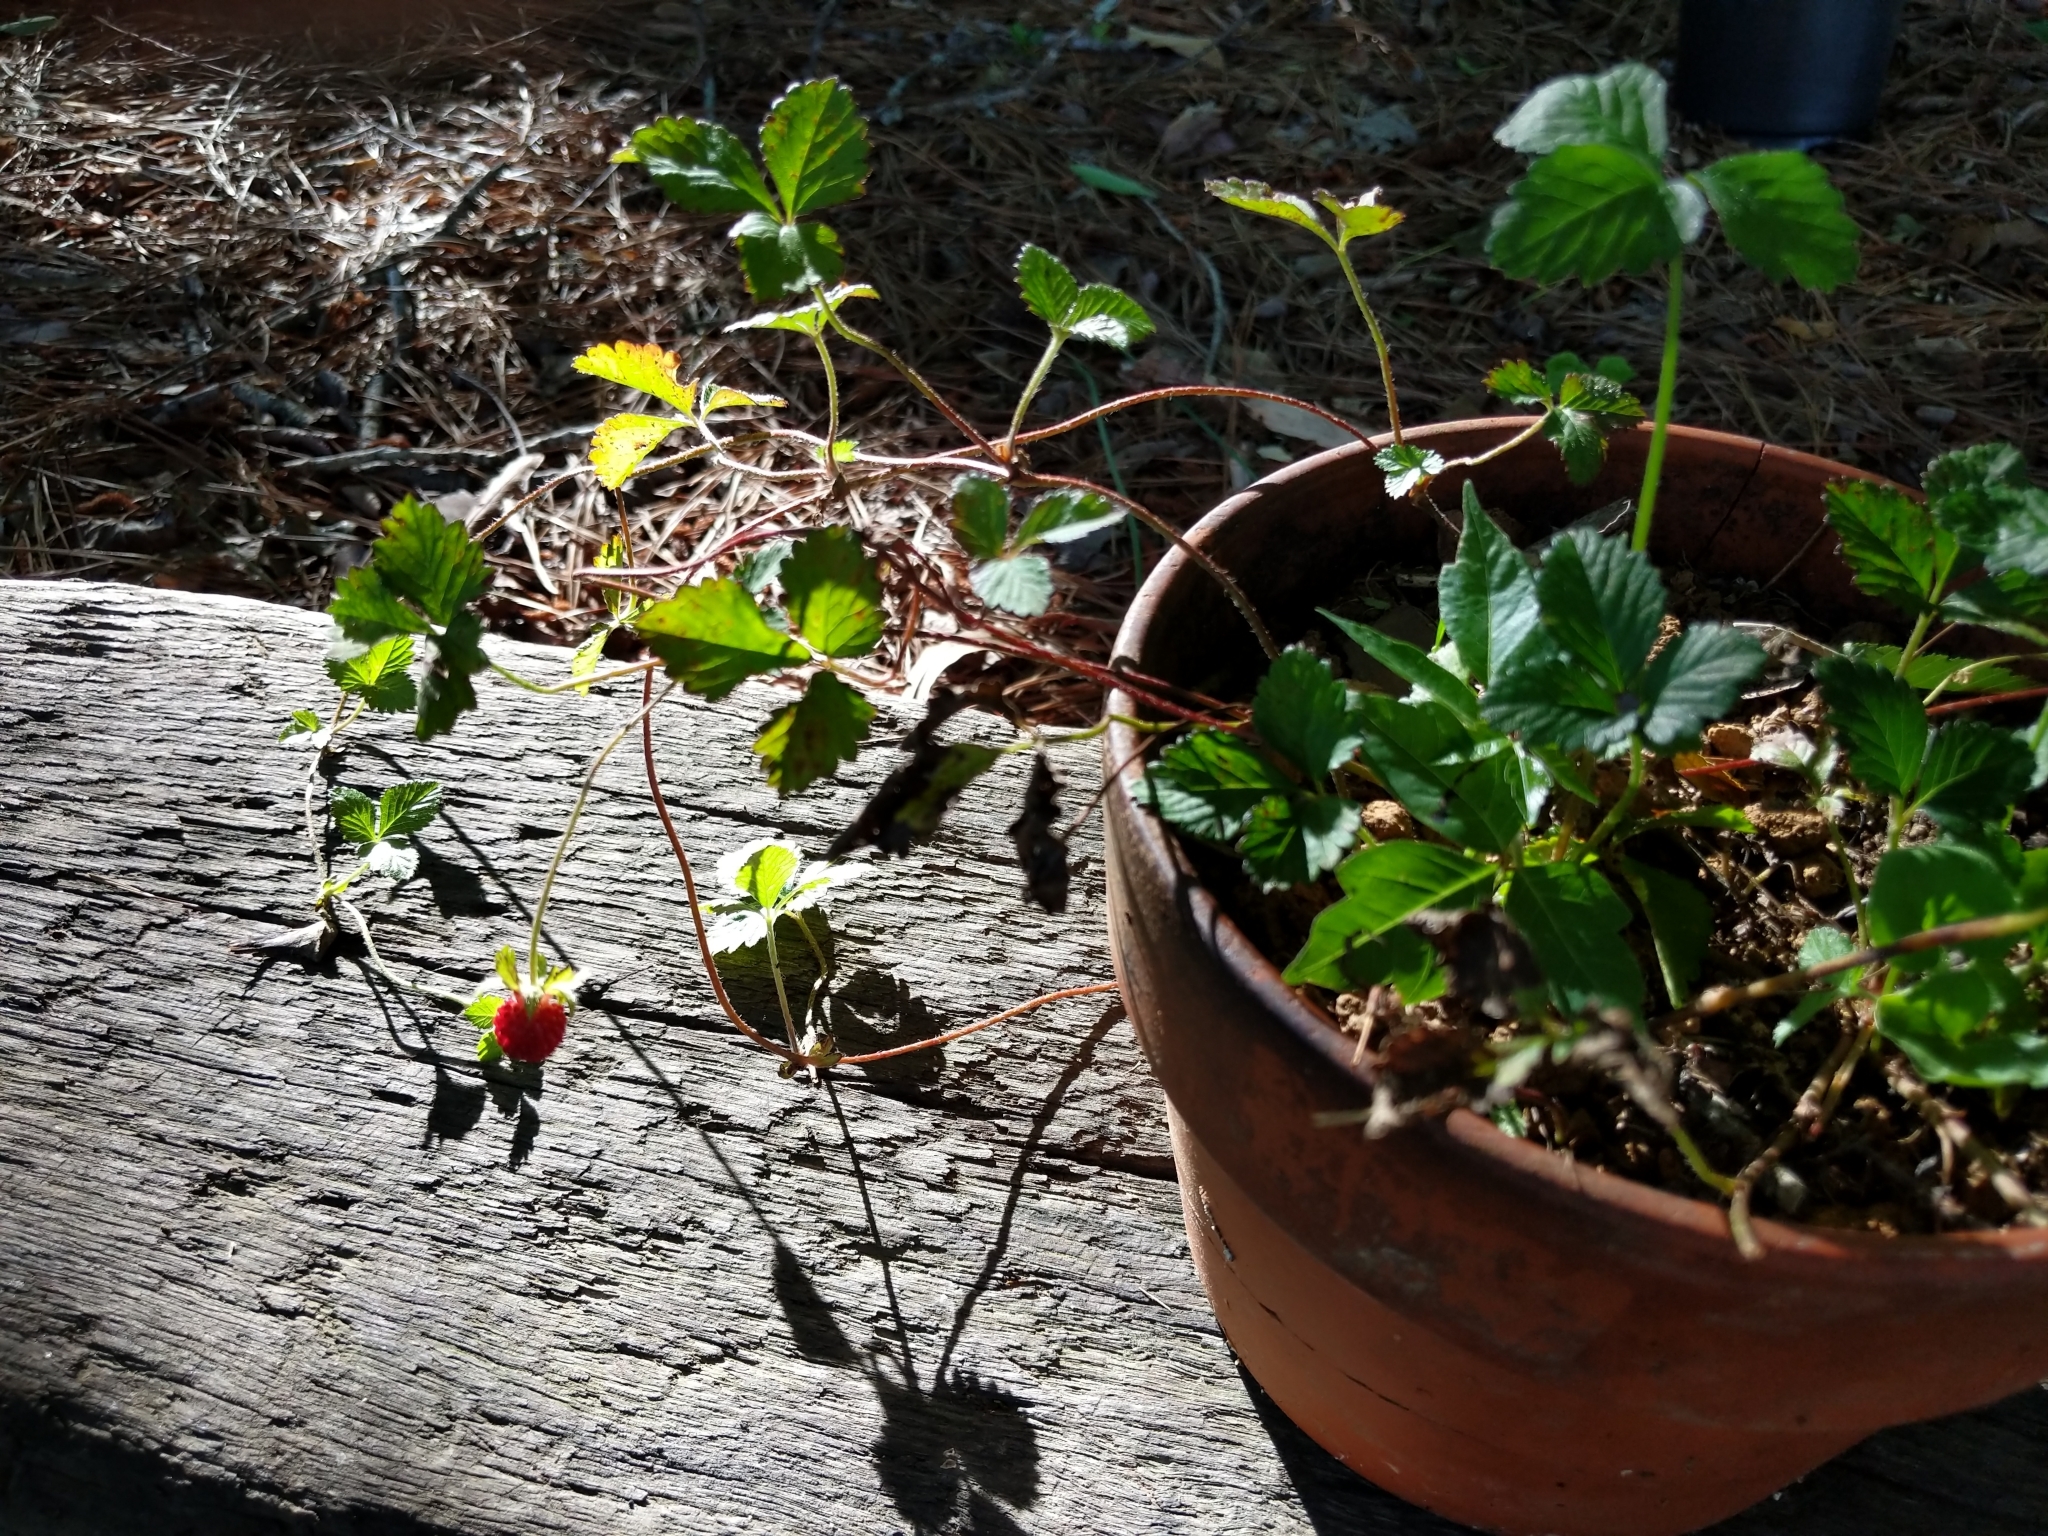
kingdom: Plantae
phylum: Tracheophyta
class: Magnoliopsida
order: Rosales
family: Rosaceae
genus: Potentilla
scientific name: Potentilla indica
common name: Yellow-flowered strawberry
